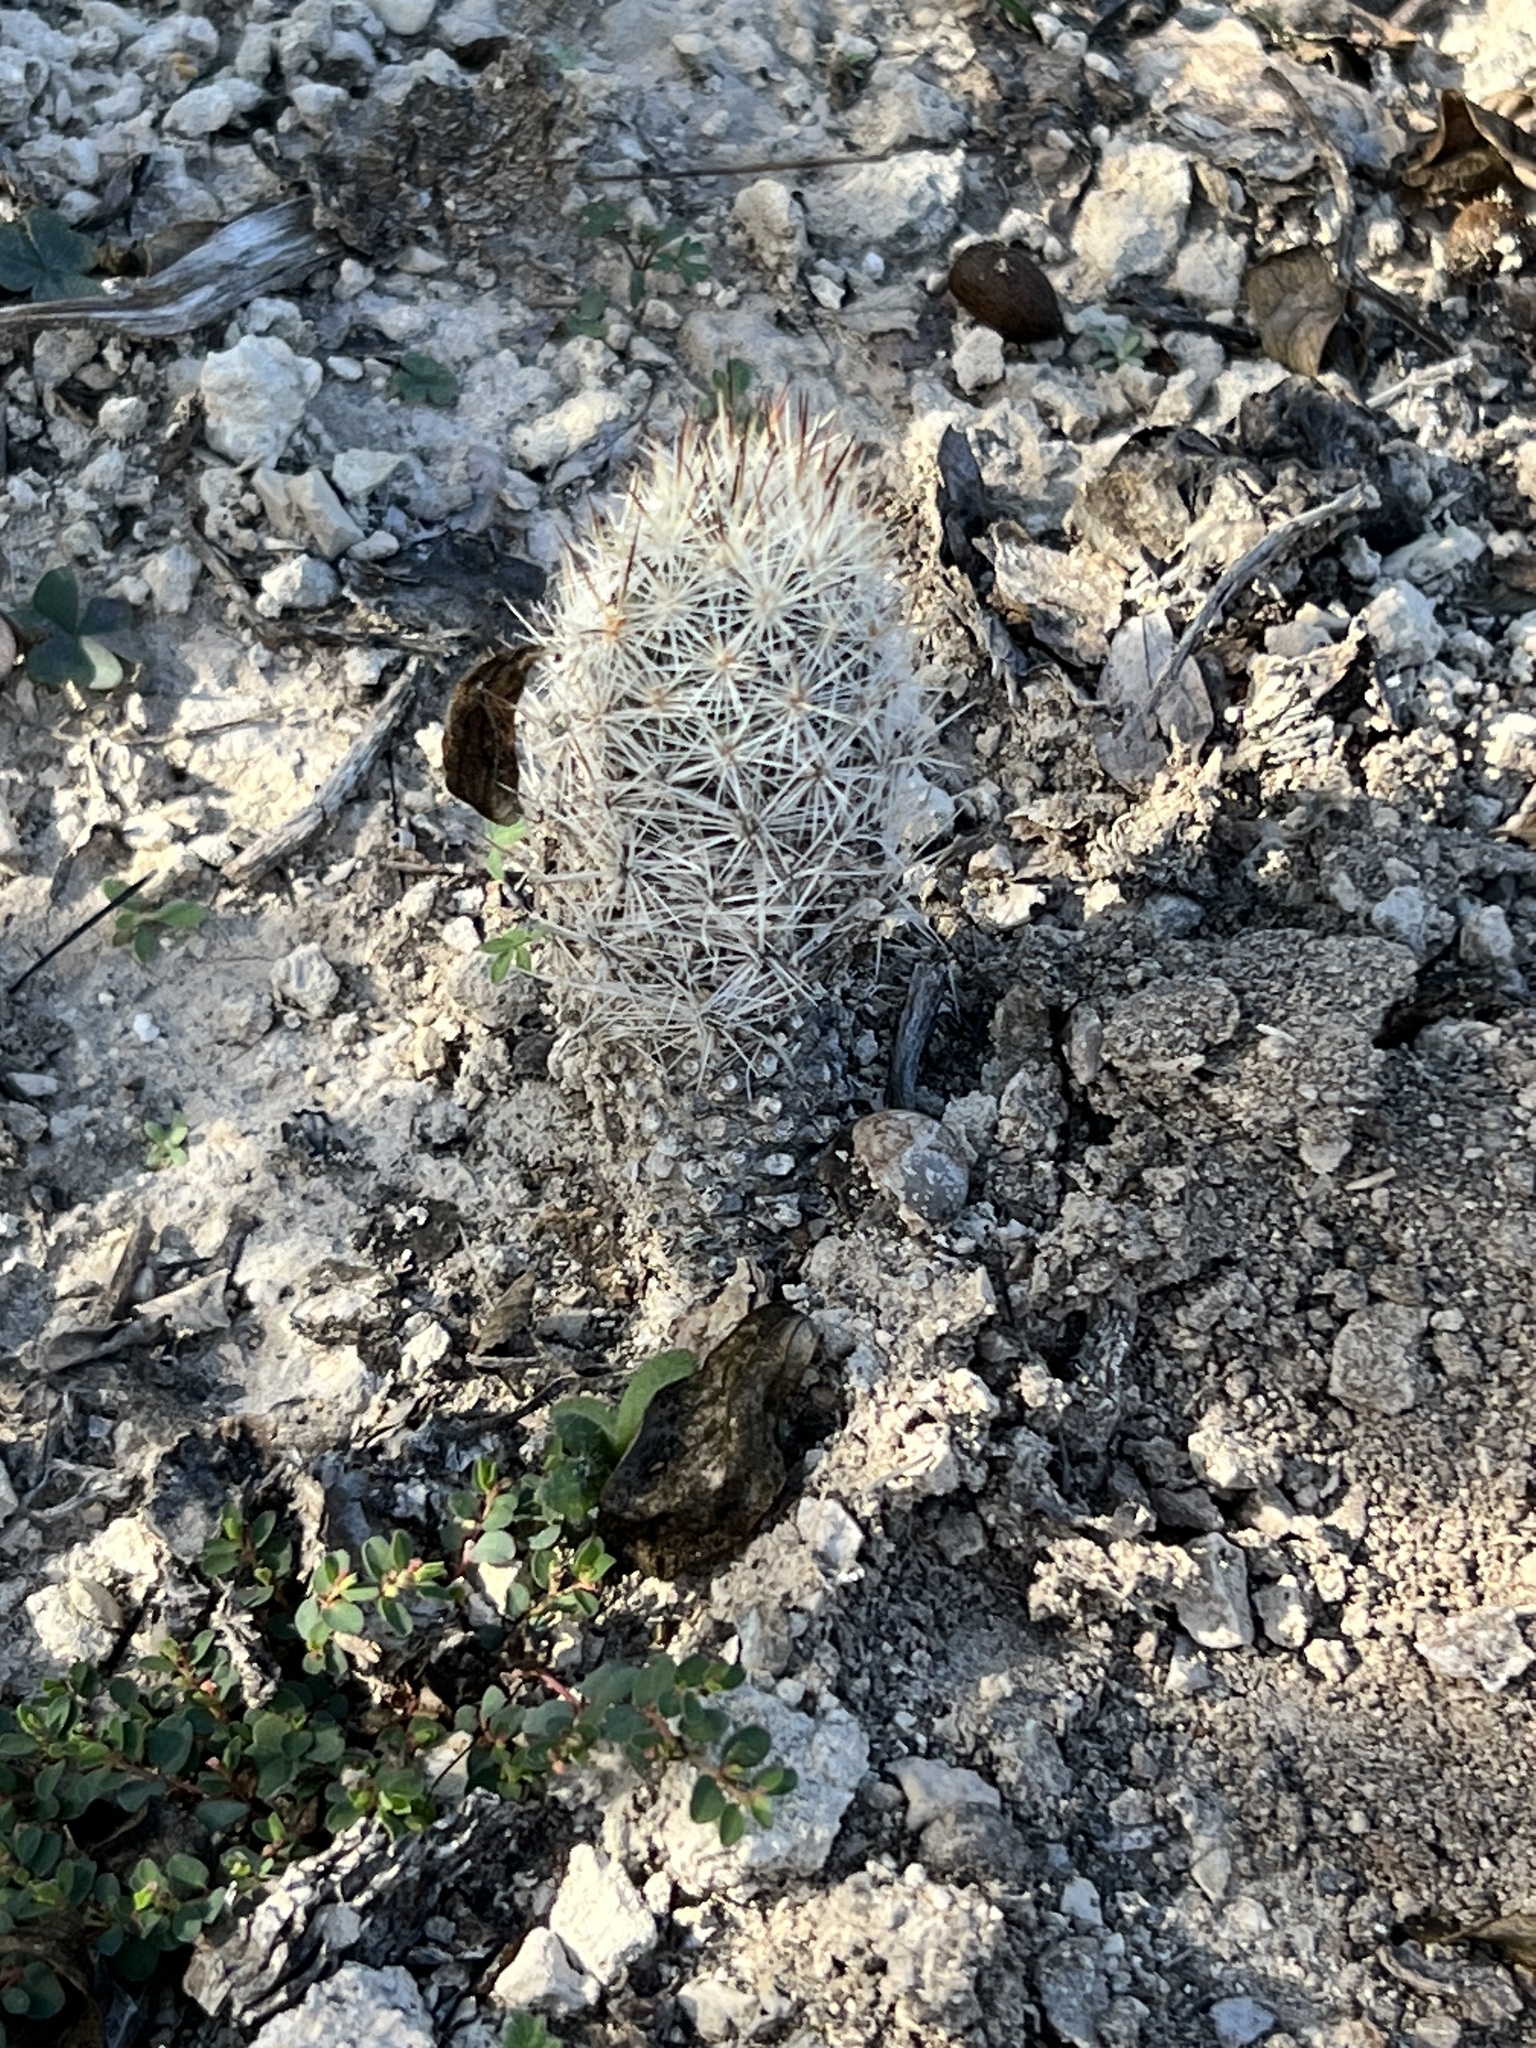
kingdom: Plantae
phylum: Tracheophyta
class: Magnoliopsida
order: Caryophyllales
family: Cactaceae
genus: Pelecyphora
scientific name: Pelecyphora emskoetteriana
